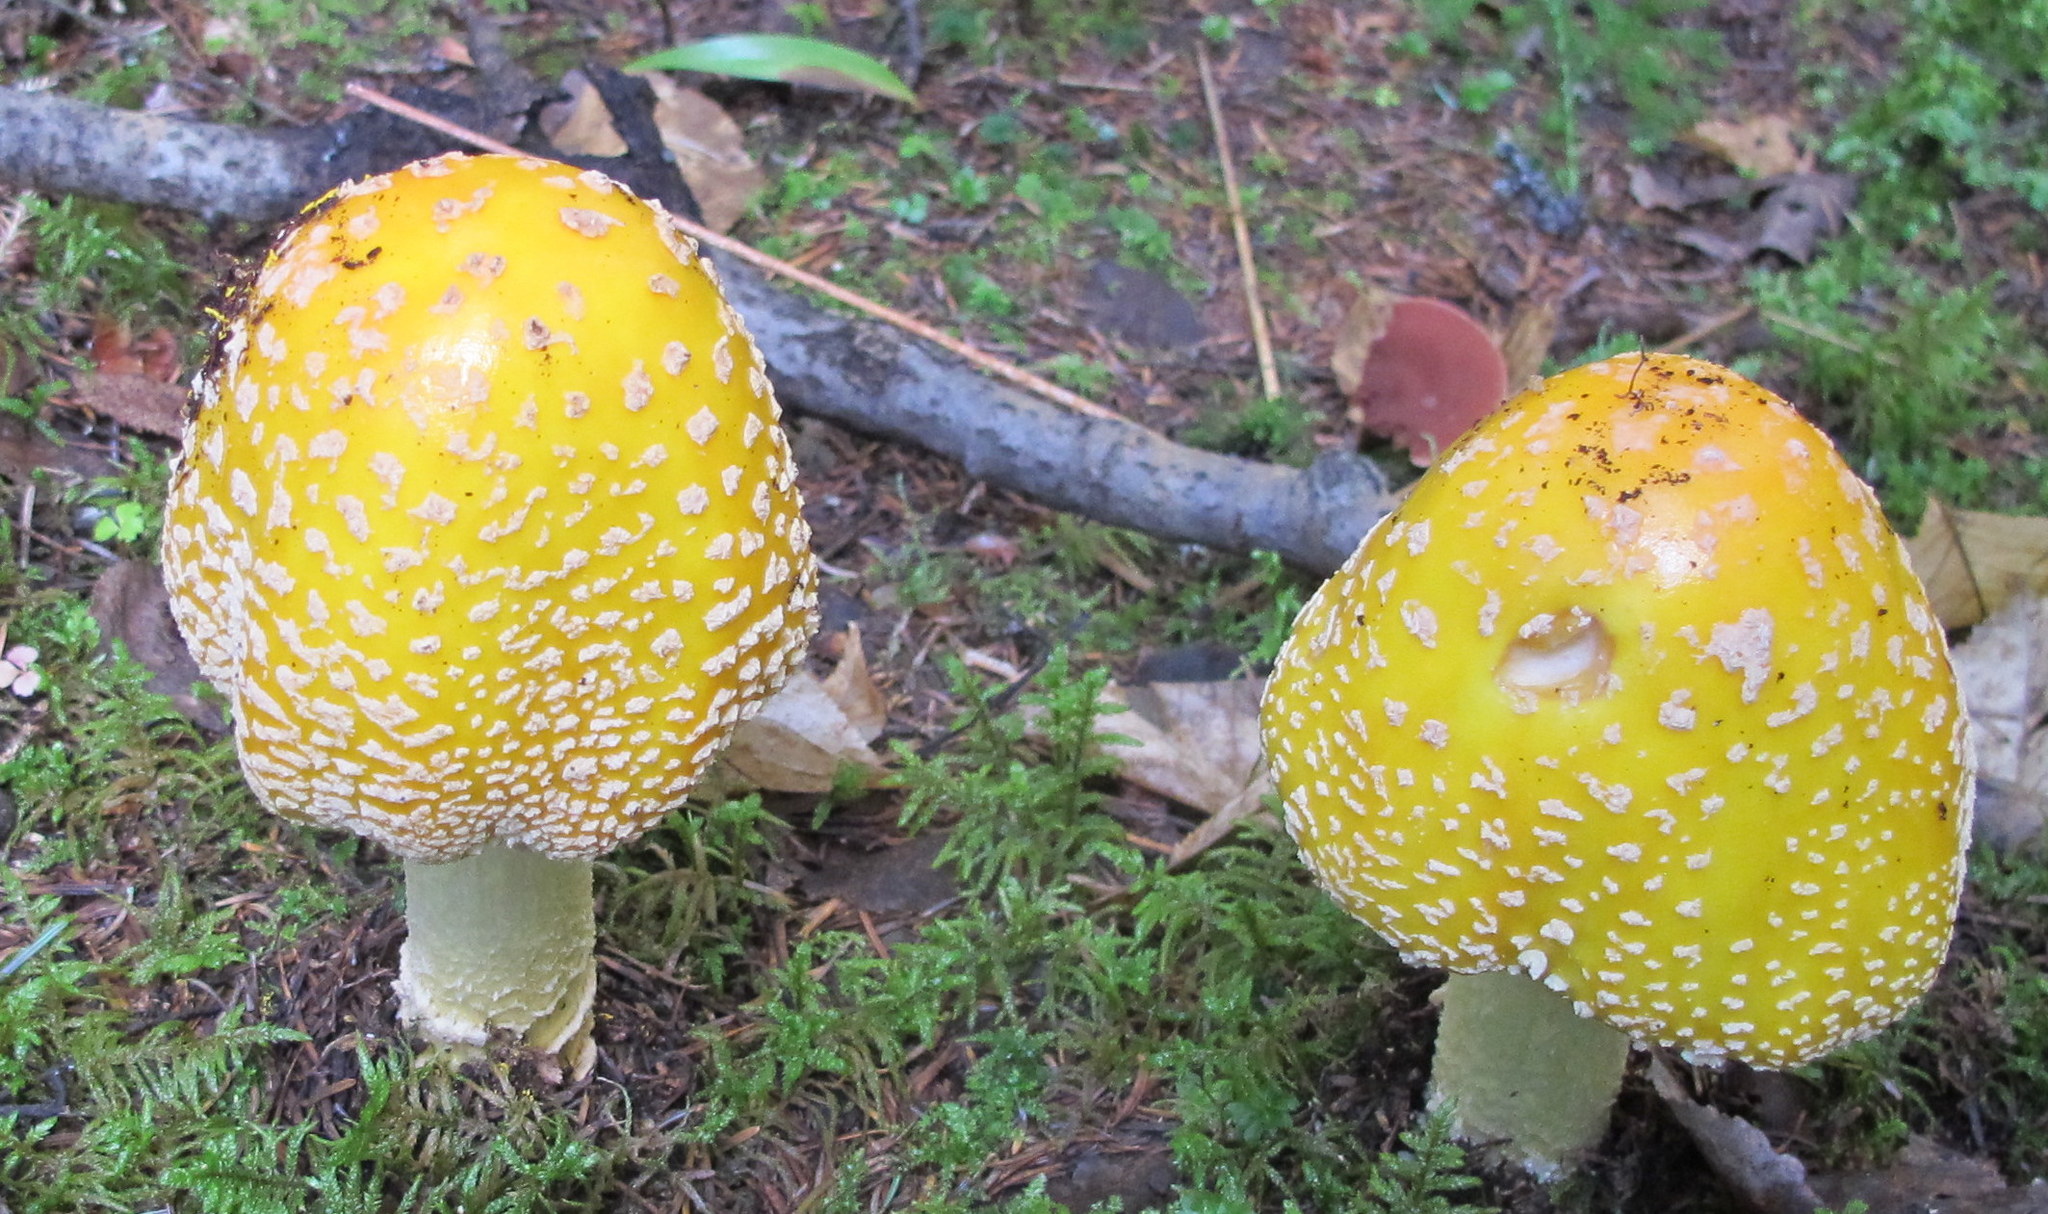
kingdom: Fungi
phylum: Basidiomycota
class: Agaricomycetes
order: Agaricales
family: Amanitaceae
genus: Amanita
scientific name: Amanita muscaria
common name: Fly agaric
